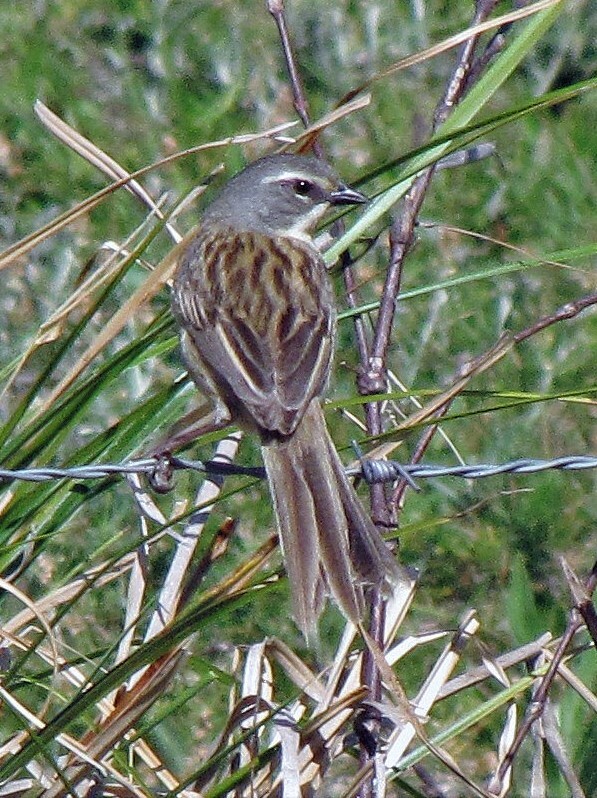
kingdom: Animalia
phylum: Chordata
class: Aves
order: Passeriformes
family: Thraupidae
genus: Donacospiza
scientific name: Donacospiza albifrons
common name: Long-tailed reed finch
